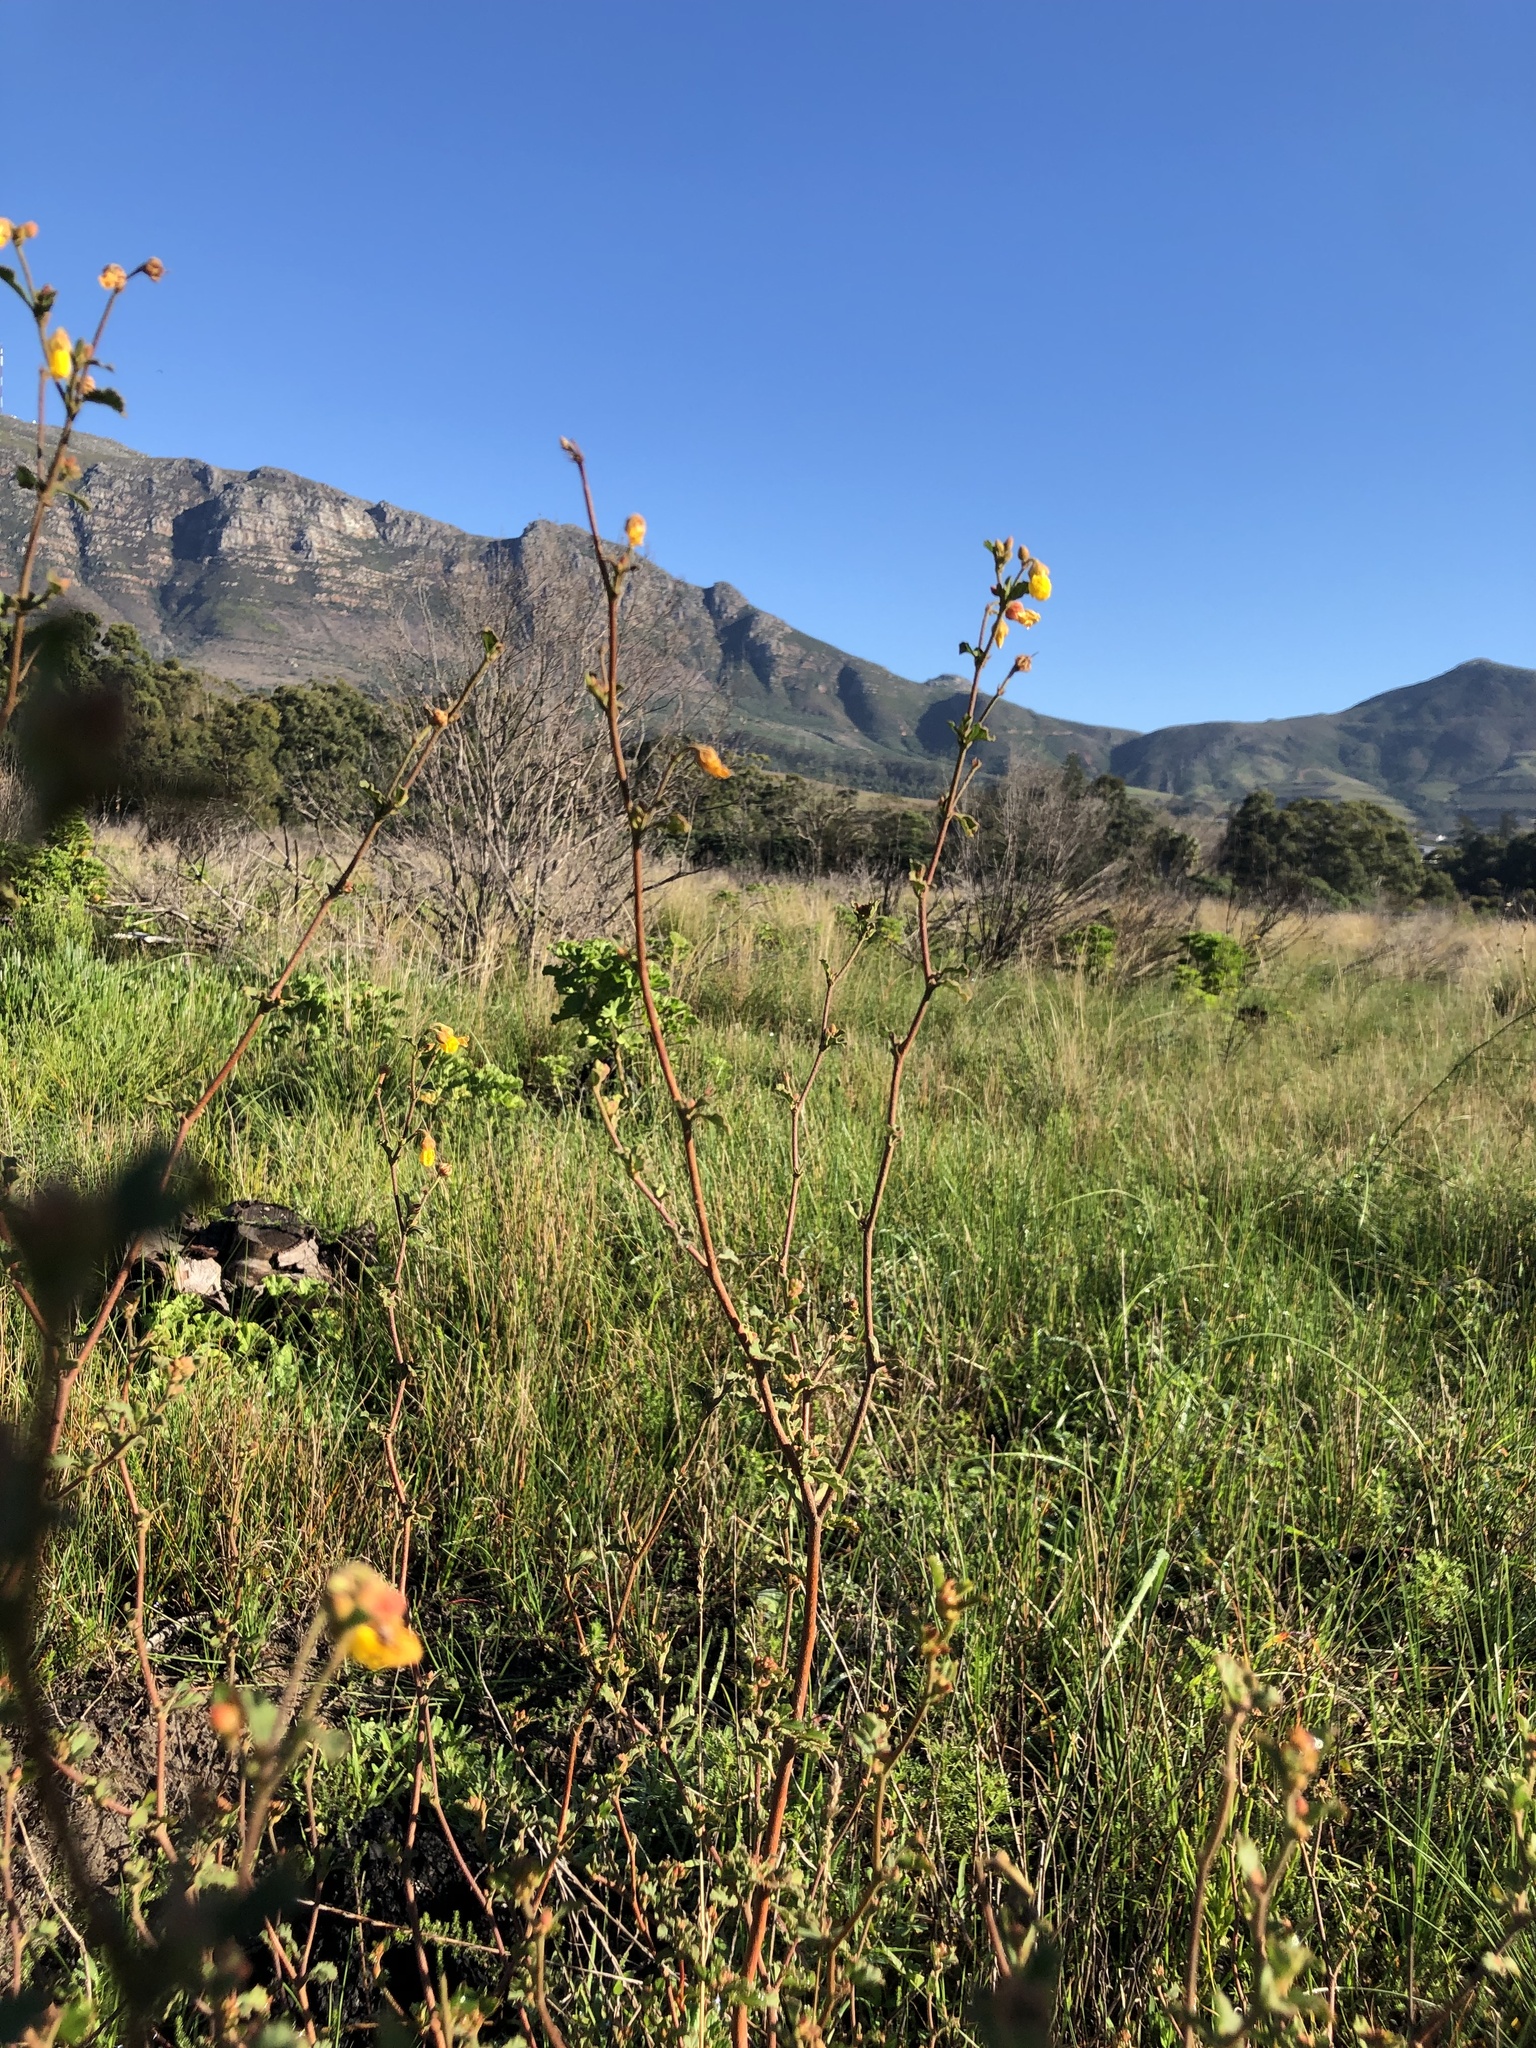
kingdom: Plantae
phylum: Tracheophyta
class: Magnoliopsida
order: Malvales
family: Malvaceae
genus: Hermannia
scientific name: Hermannia multiflora
